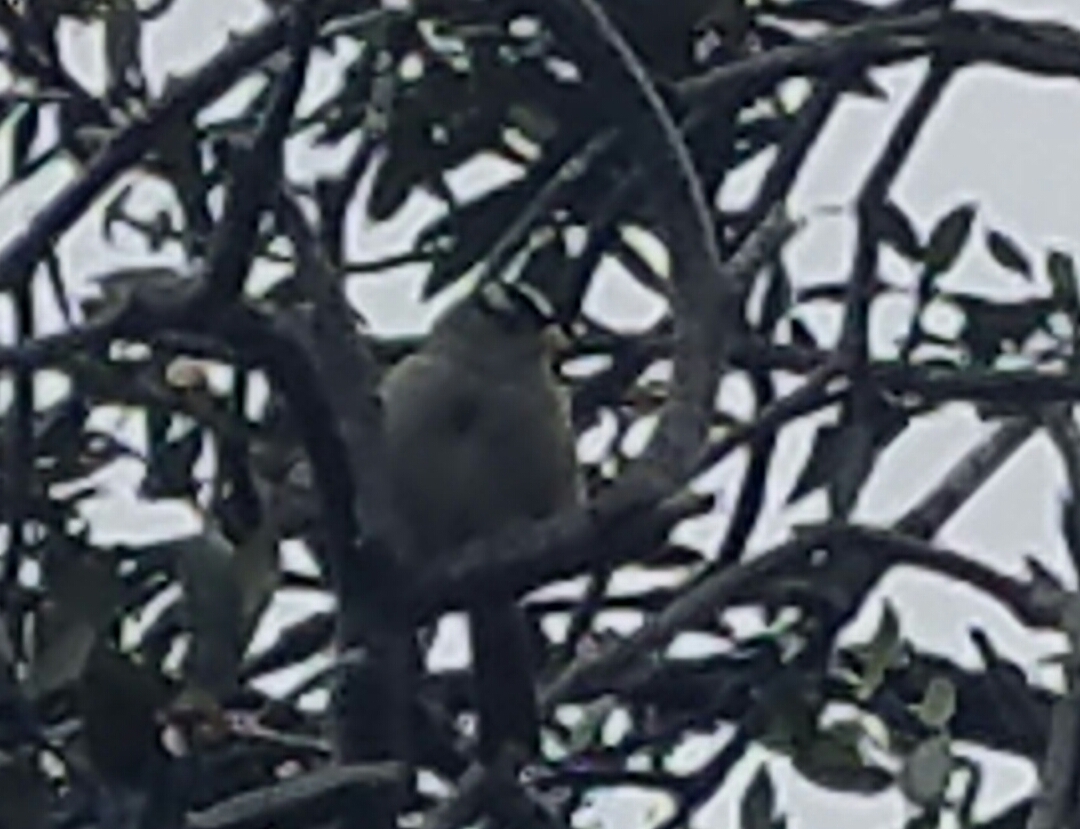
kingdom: Animalia
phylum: Chordata
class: Aves
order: Passeriformes
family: Passerellidae
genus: Zonotrichia
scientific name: Zonotrichia leucophrys
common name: White-crowned sparrow
